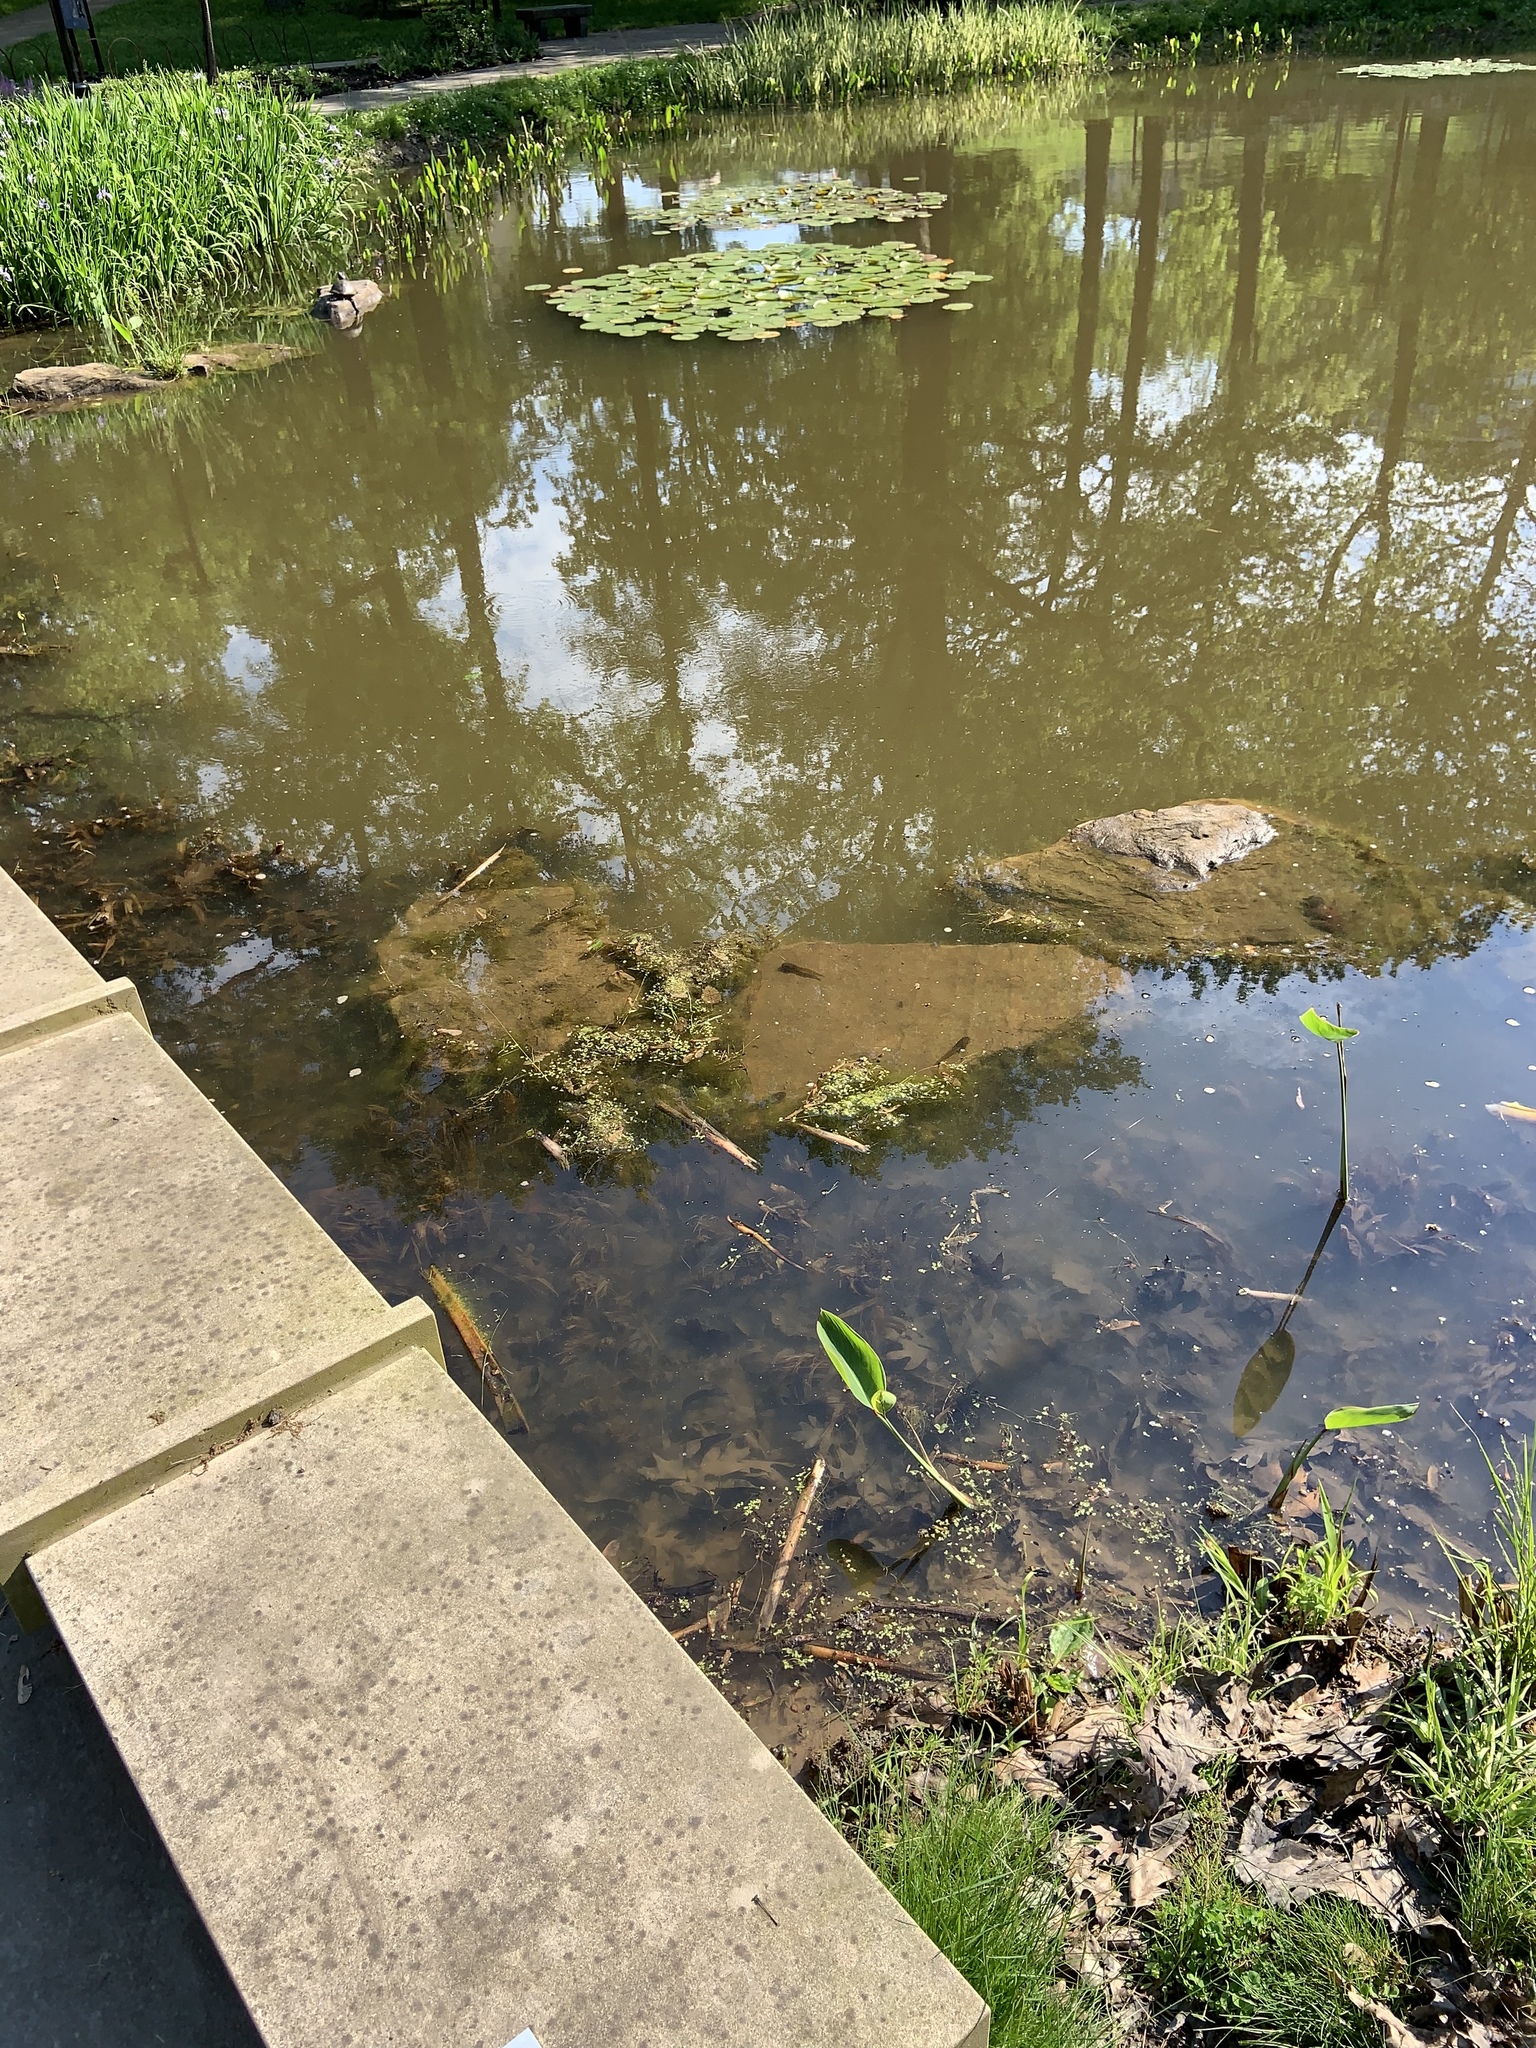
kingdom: Animalia
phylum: Chordata
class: Amphibia
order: Anura
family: Ranidae
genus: Lithobates
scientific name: Lithobates catesbeianus
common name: American bullfrog
